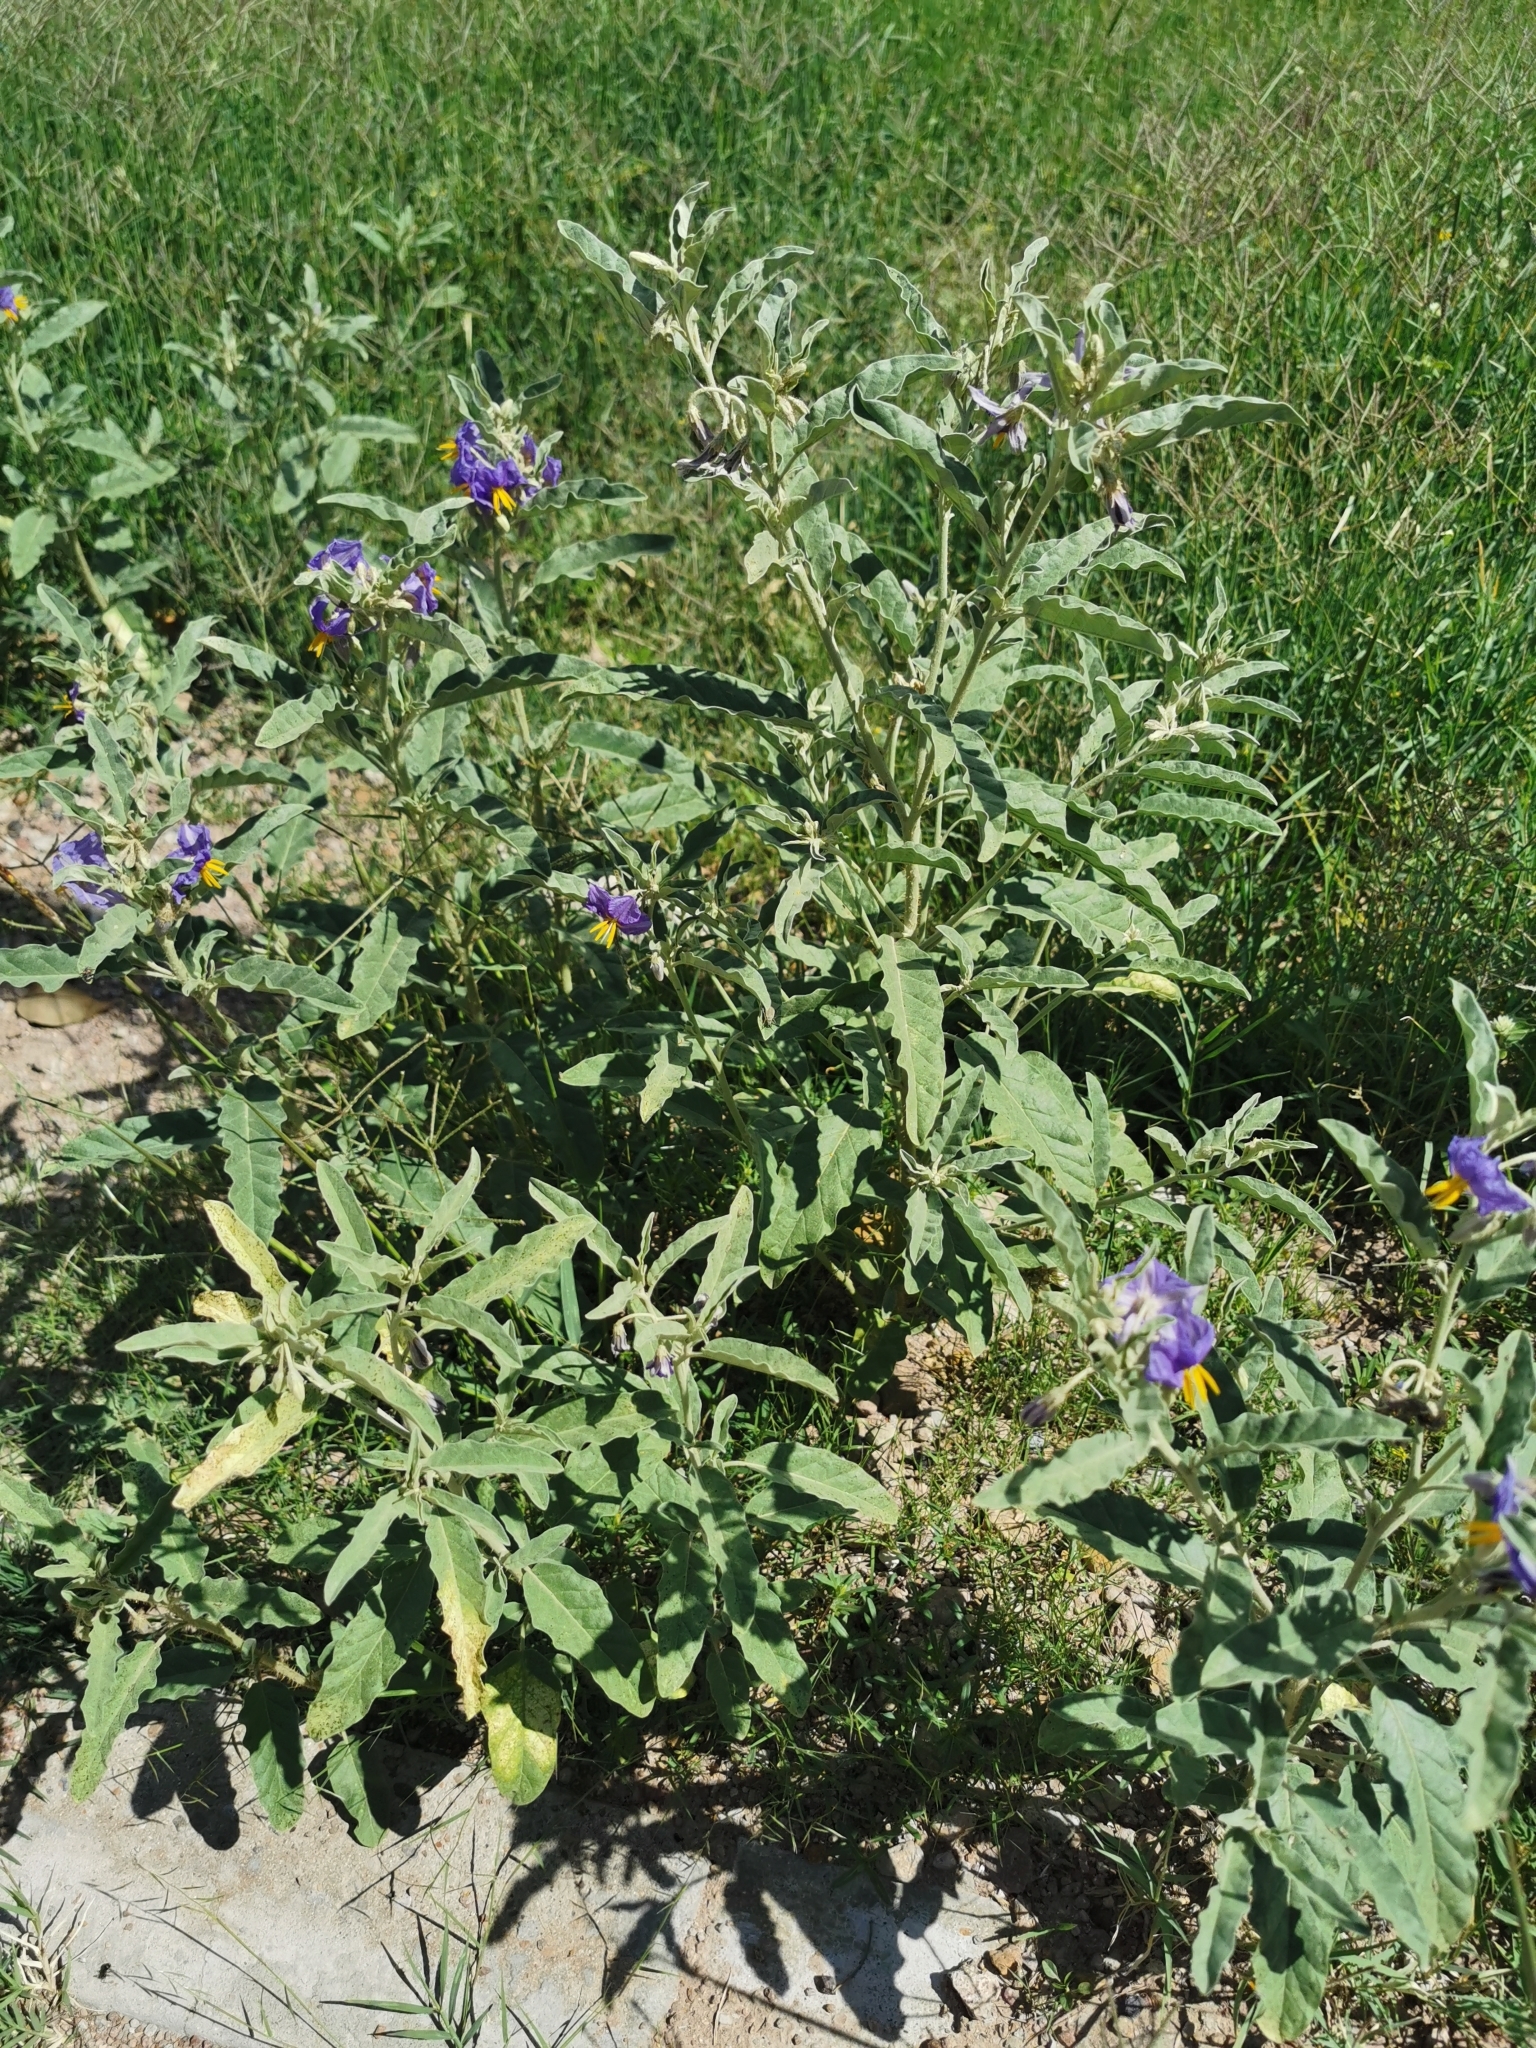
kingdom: Plantae
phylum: Tracheophyta
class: Magnoliopsida
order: Solanales
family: Solanaceae
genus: Solanum
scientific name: Solanum elaeagnifolium
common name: Silverleaf nightshade
